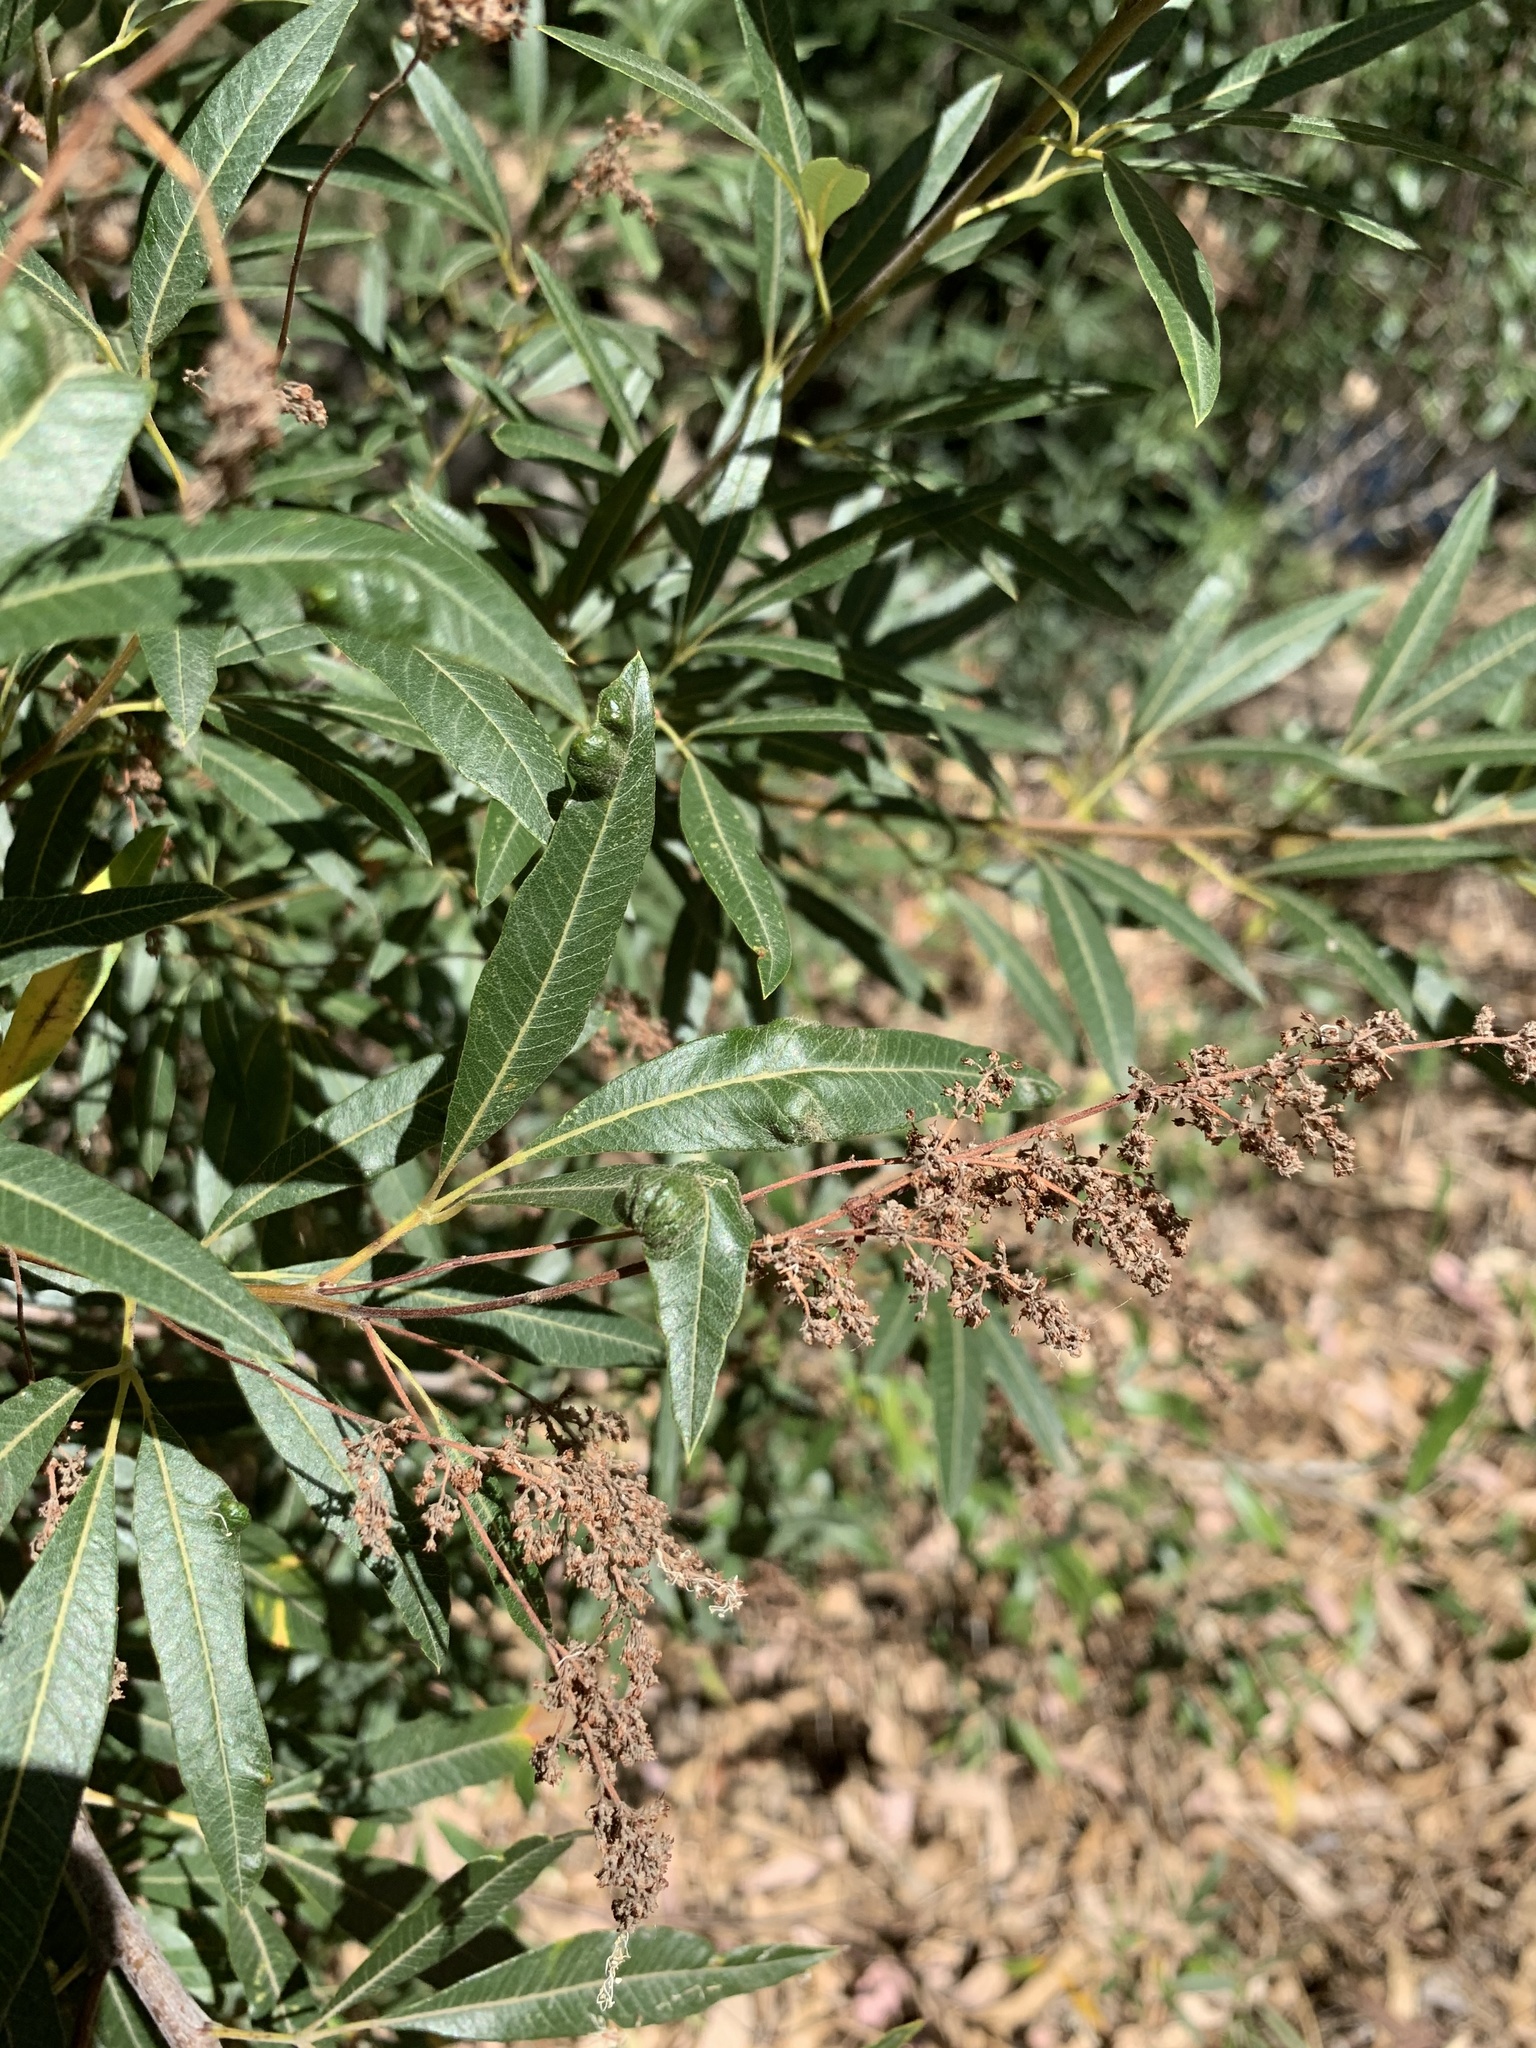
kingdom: Plantae
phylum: Tracheophyta
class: Magnoliopsida
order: Sapindales
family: Anacardiaceae
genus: Searsia
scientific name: Searsia angustifolia
